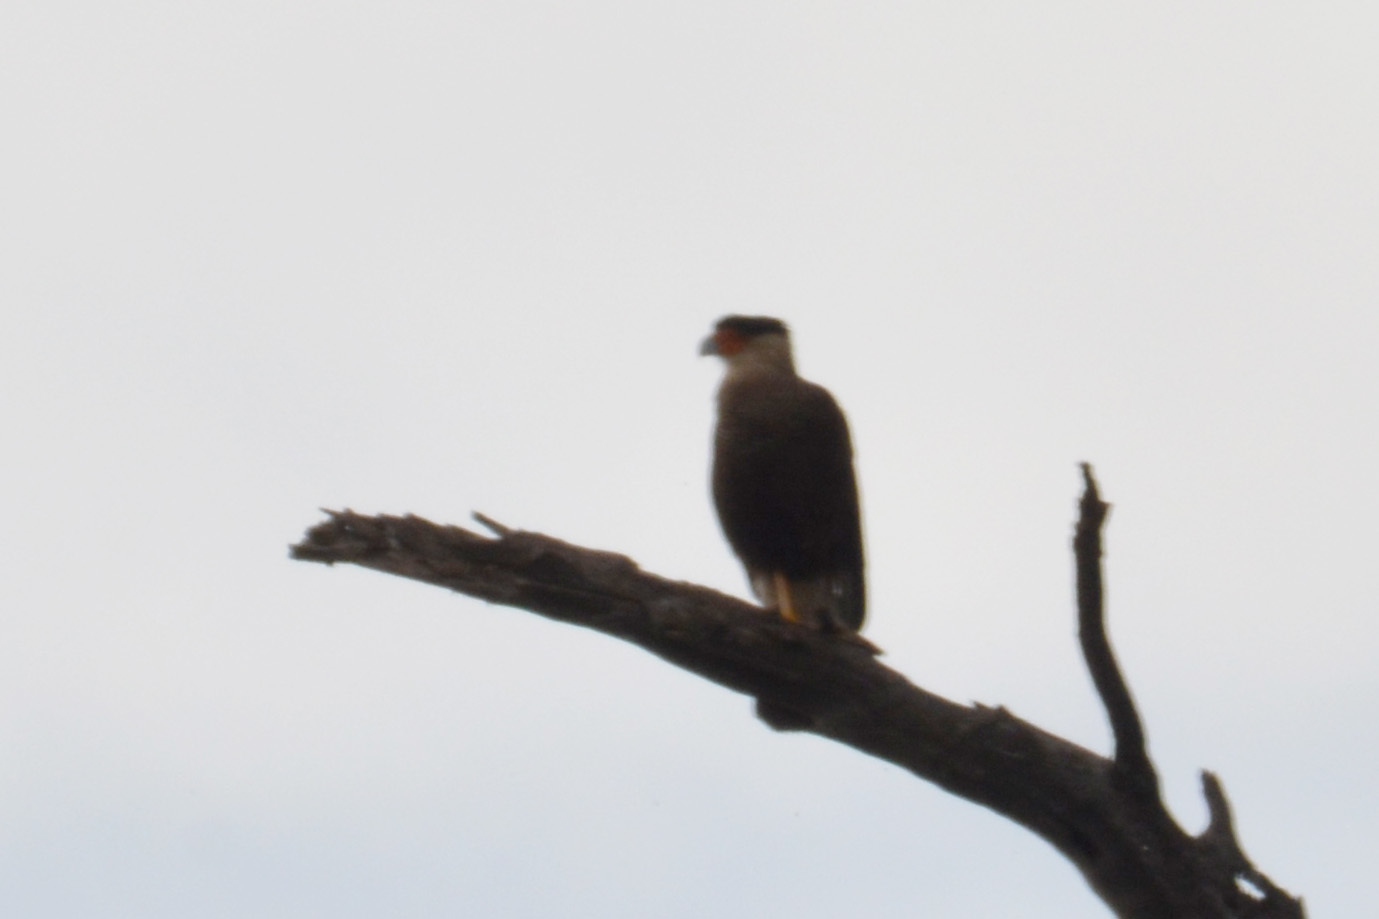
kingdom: Animalia
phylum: Chordata
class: Aves
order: Falconiformes
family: Falconidae
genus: Caracara
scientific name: Caracara plancus
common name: Southern caracara
